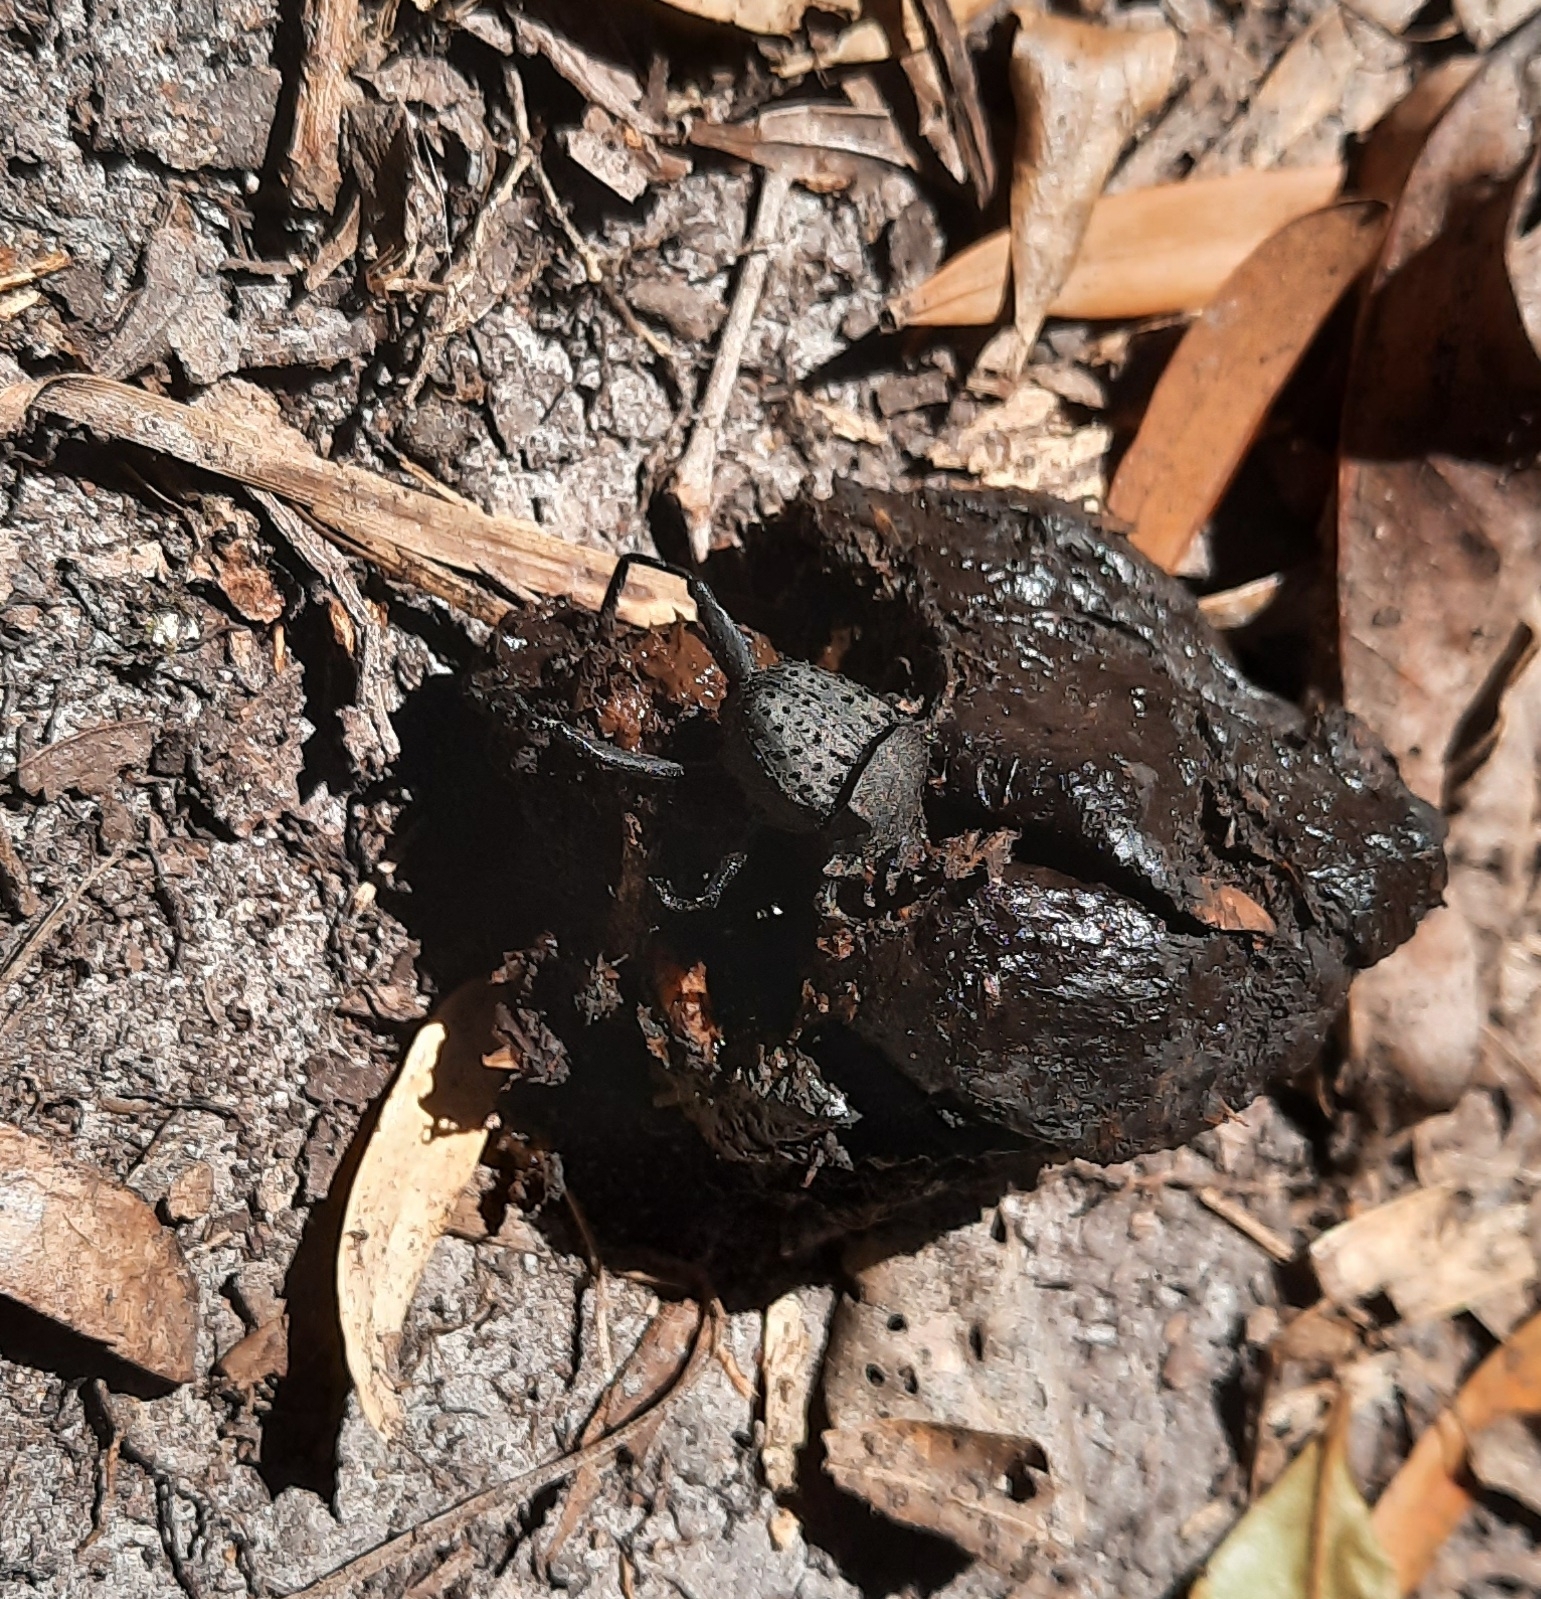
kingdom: Animalia
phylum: Arthropoda
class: Insecta
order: Coleoptera
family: Scarabaeidae
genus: Sisyphus
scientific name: Sisyphus muricatus
